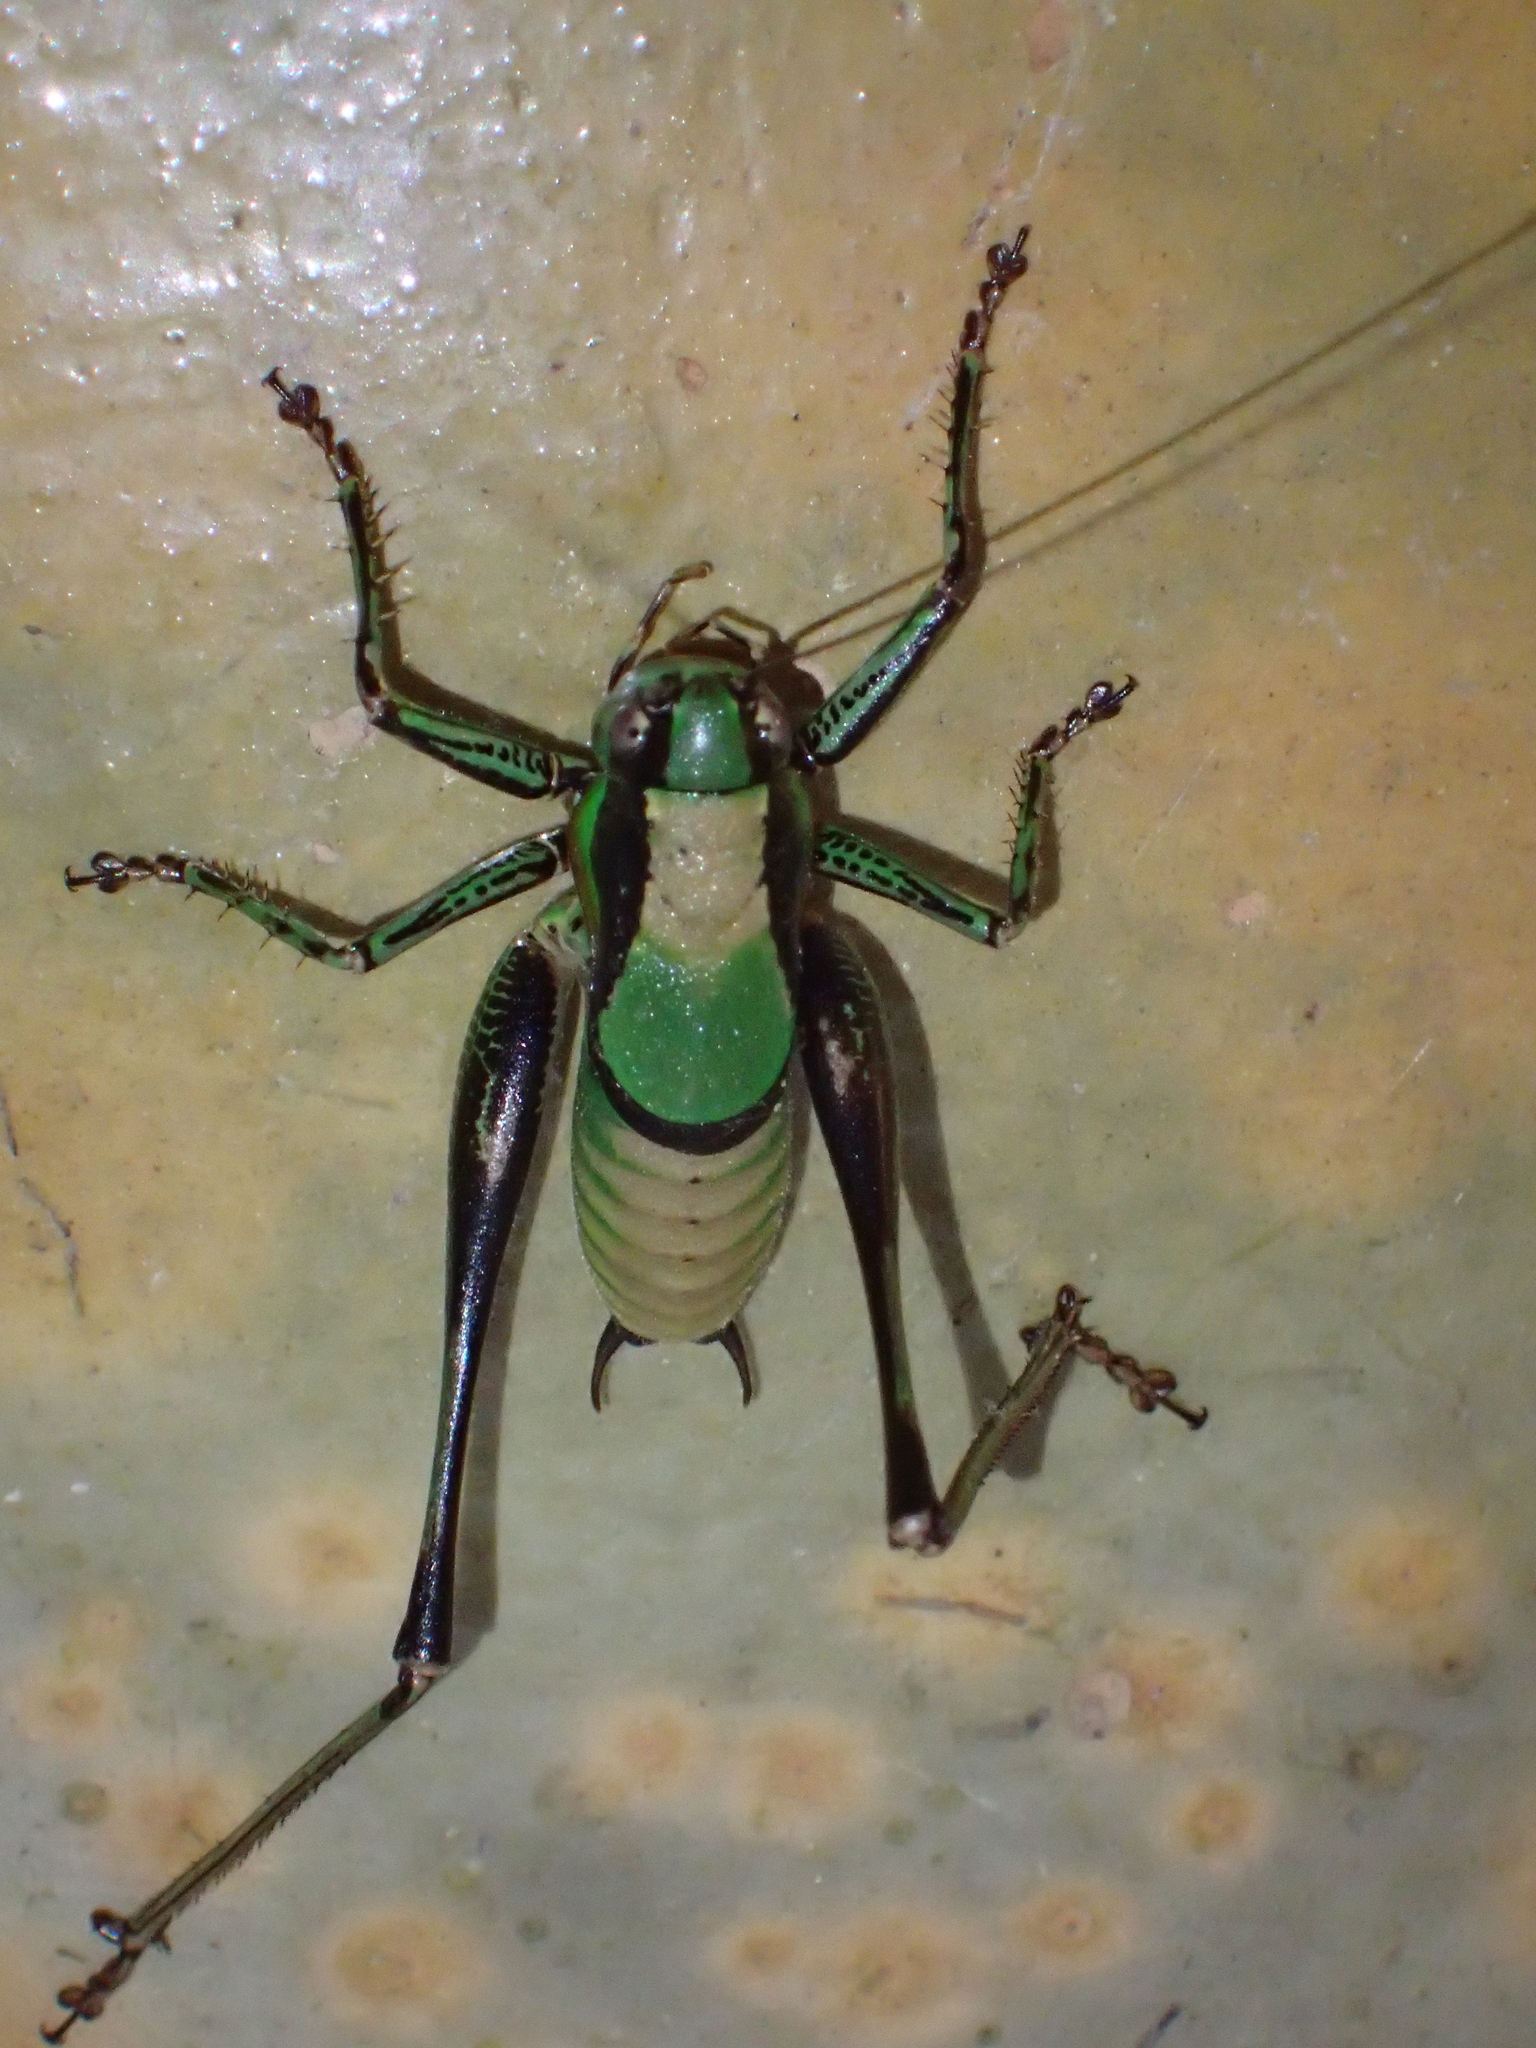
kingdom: Animalia
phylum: Arthropoda
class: Insecta
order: Orthoptera
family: Tettigoniidae
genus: Eupholidoptera
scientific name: Eupholidoptera schmidti
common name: Schmidt's marbled bush-cricket
